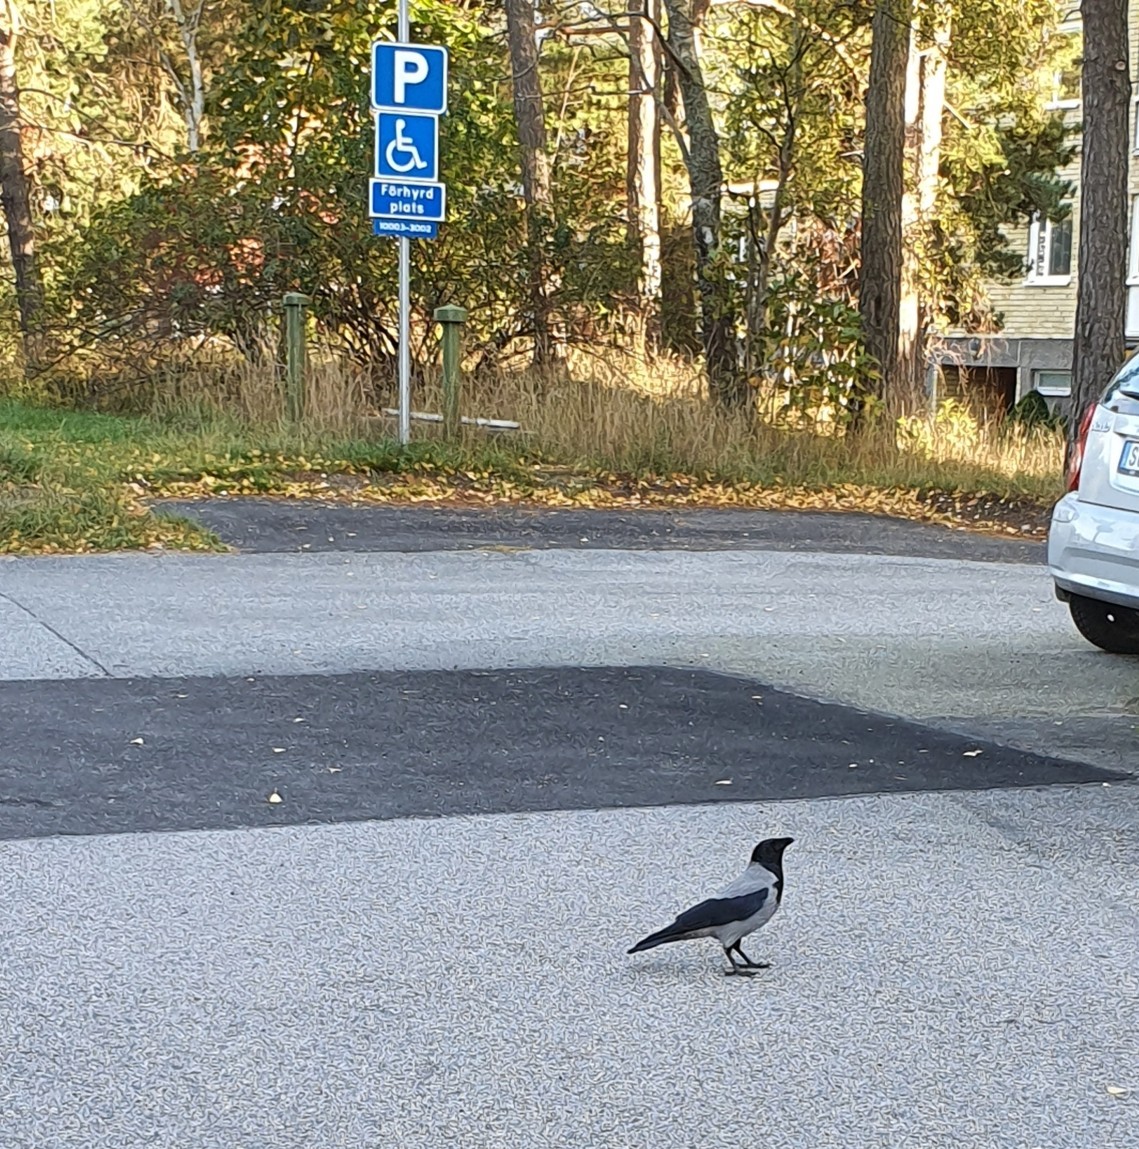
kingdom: Animalia
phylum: Chordata
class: Aves
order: Passeriformes
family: Corvidae
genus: Corvus
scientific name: Corvus cornix
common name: Hooded crow
